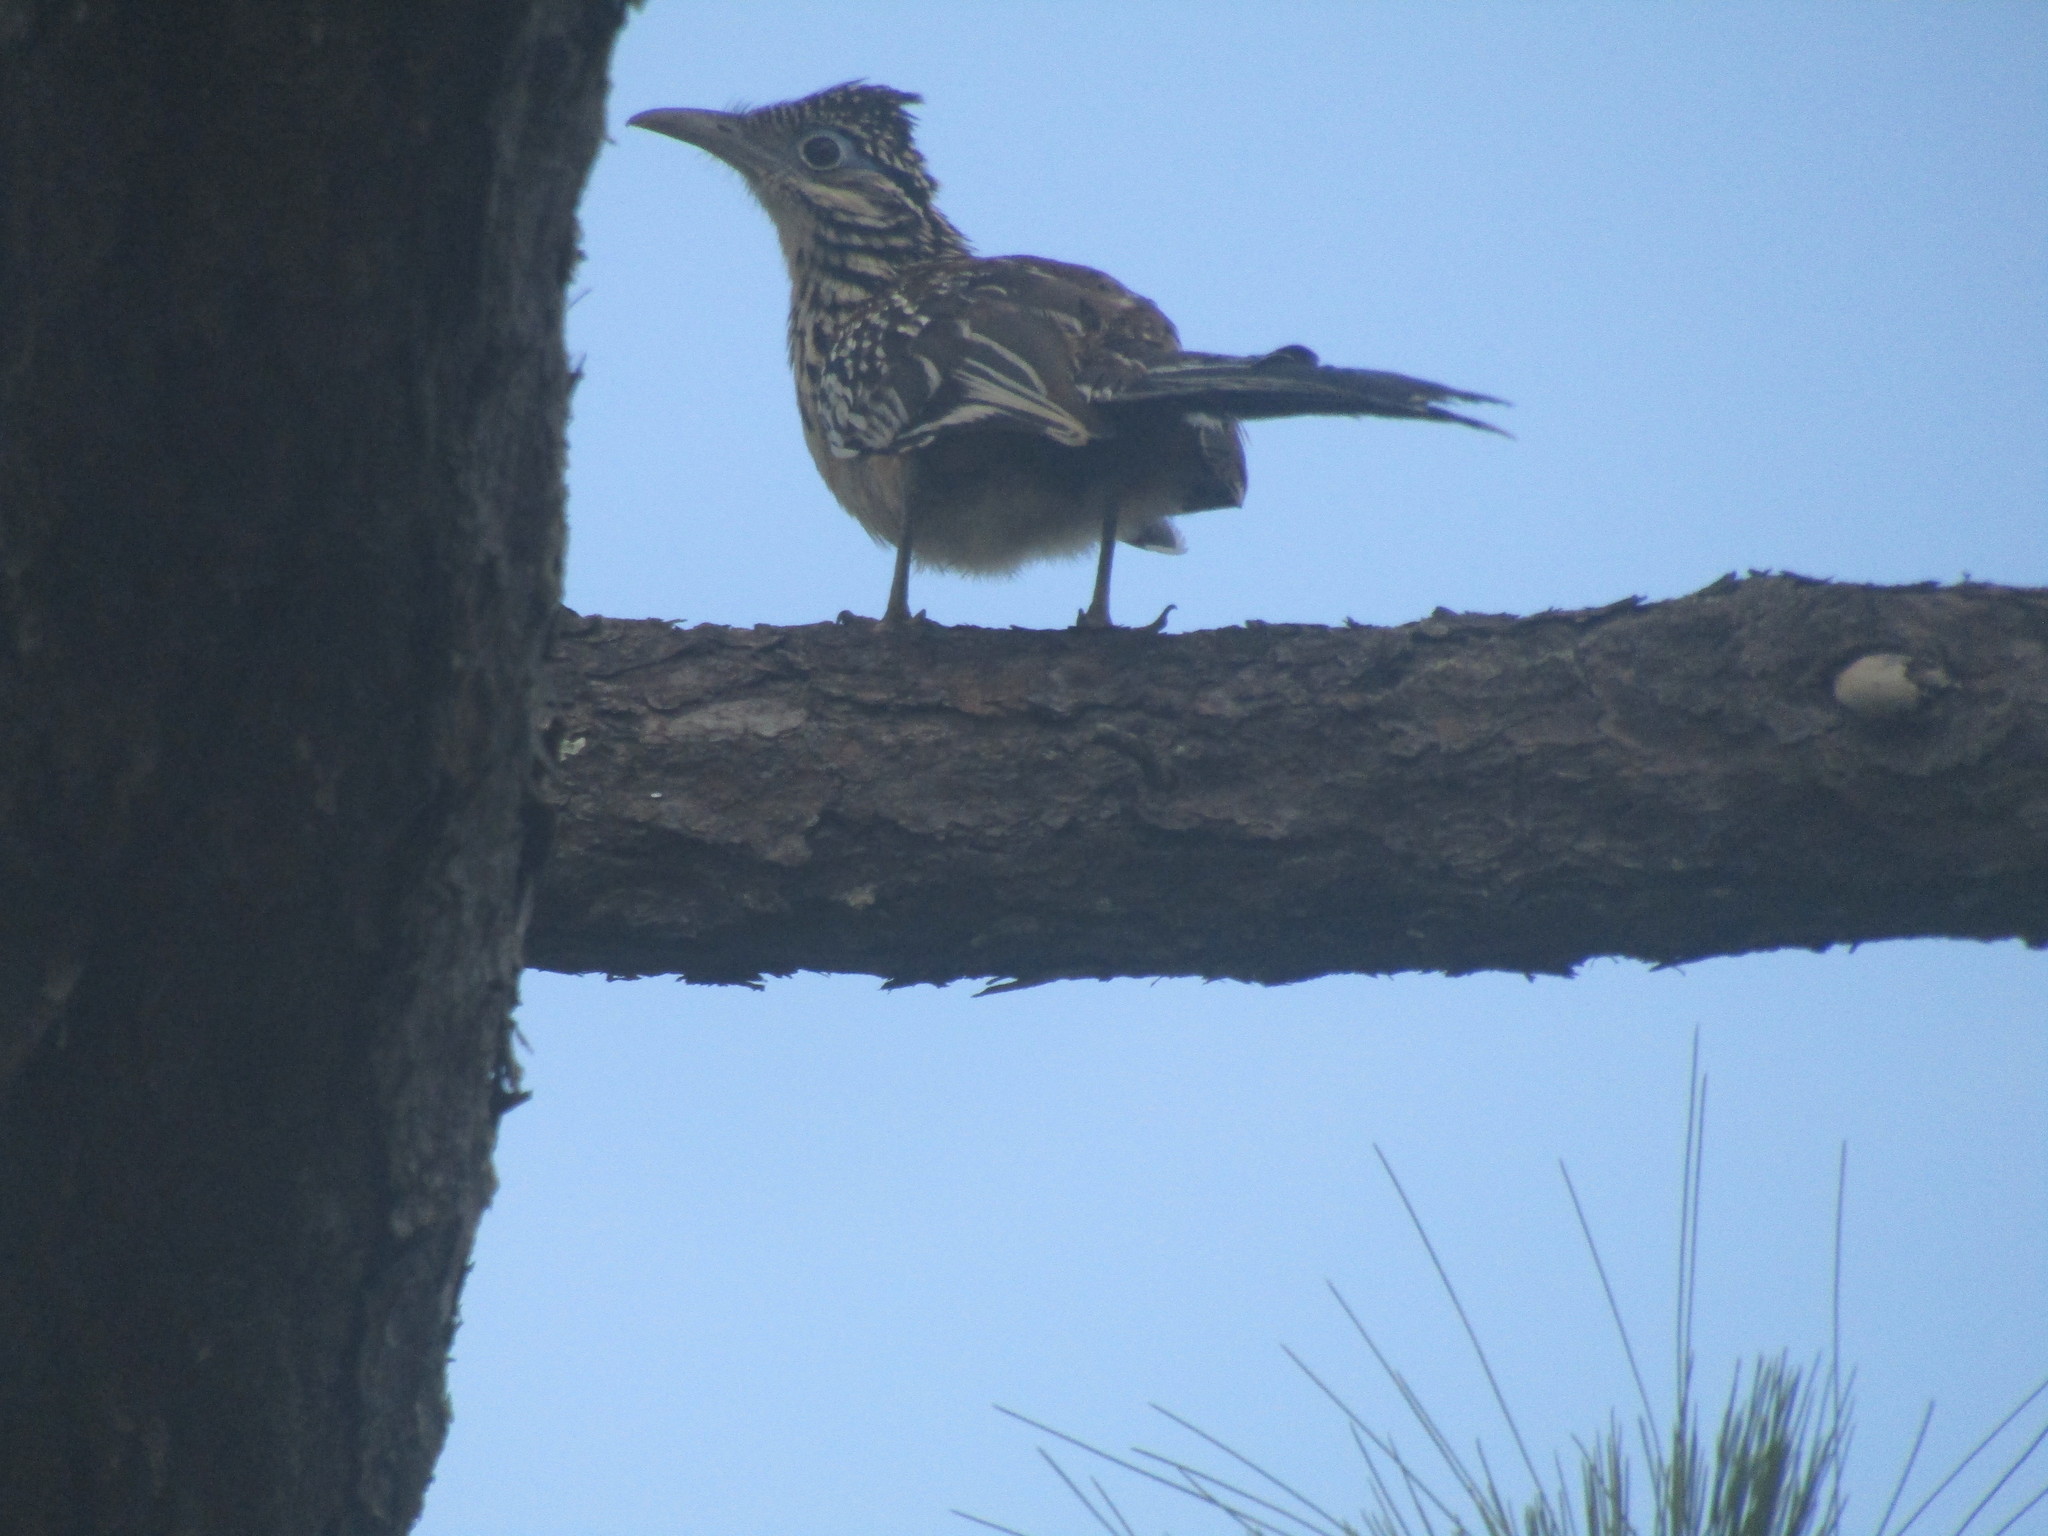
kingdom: Animalia
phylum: Chordata
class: Aves
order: Cuculiformes
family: Cuculidae
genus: Geococcyx
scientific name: Geococcyx velox
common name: Lesser roadrunner
